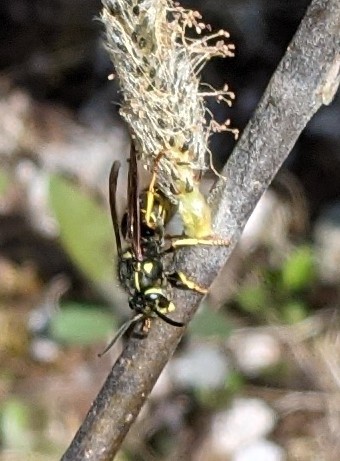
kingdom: Animalia
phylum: Arthropoda
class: Insecta
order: Hymenoptera
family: Vespidae
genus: Vespula
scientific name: Vespula
